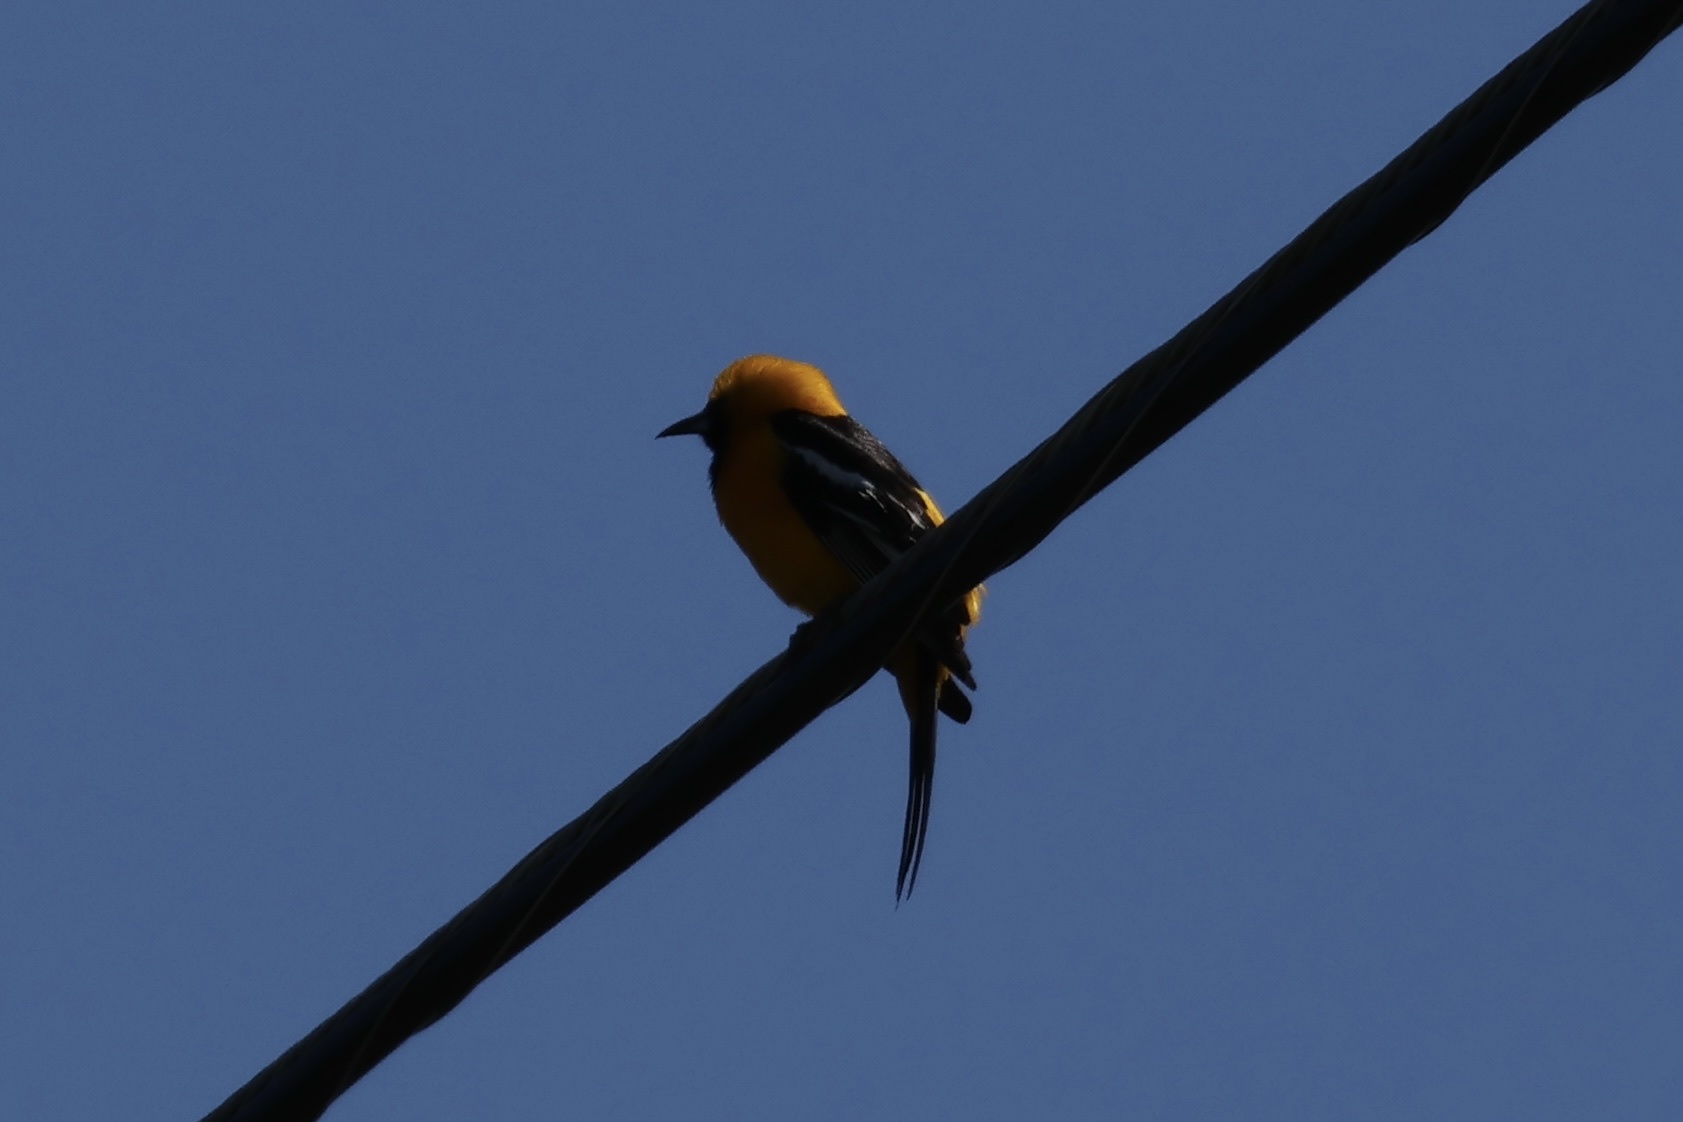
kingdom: Animalia
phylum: Chordata
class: Aves
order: Passeriformes
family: Icteridae
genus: Icterus
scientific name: Icterus cucullatus
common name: Hooded oriole
